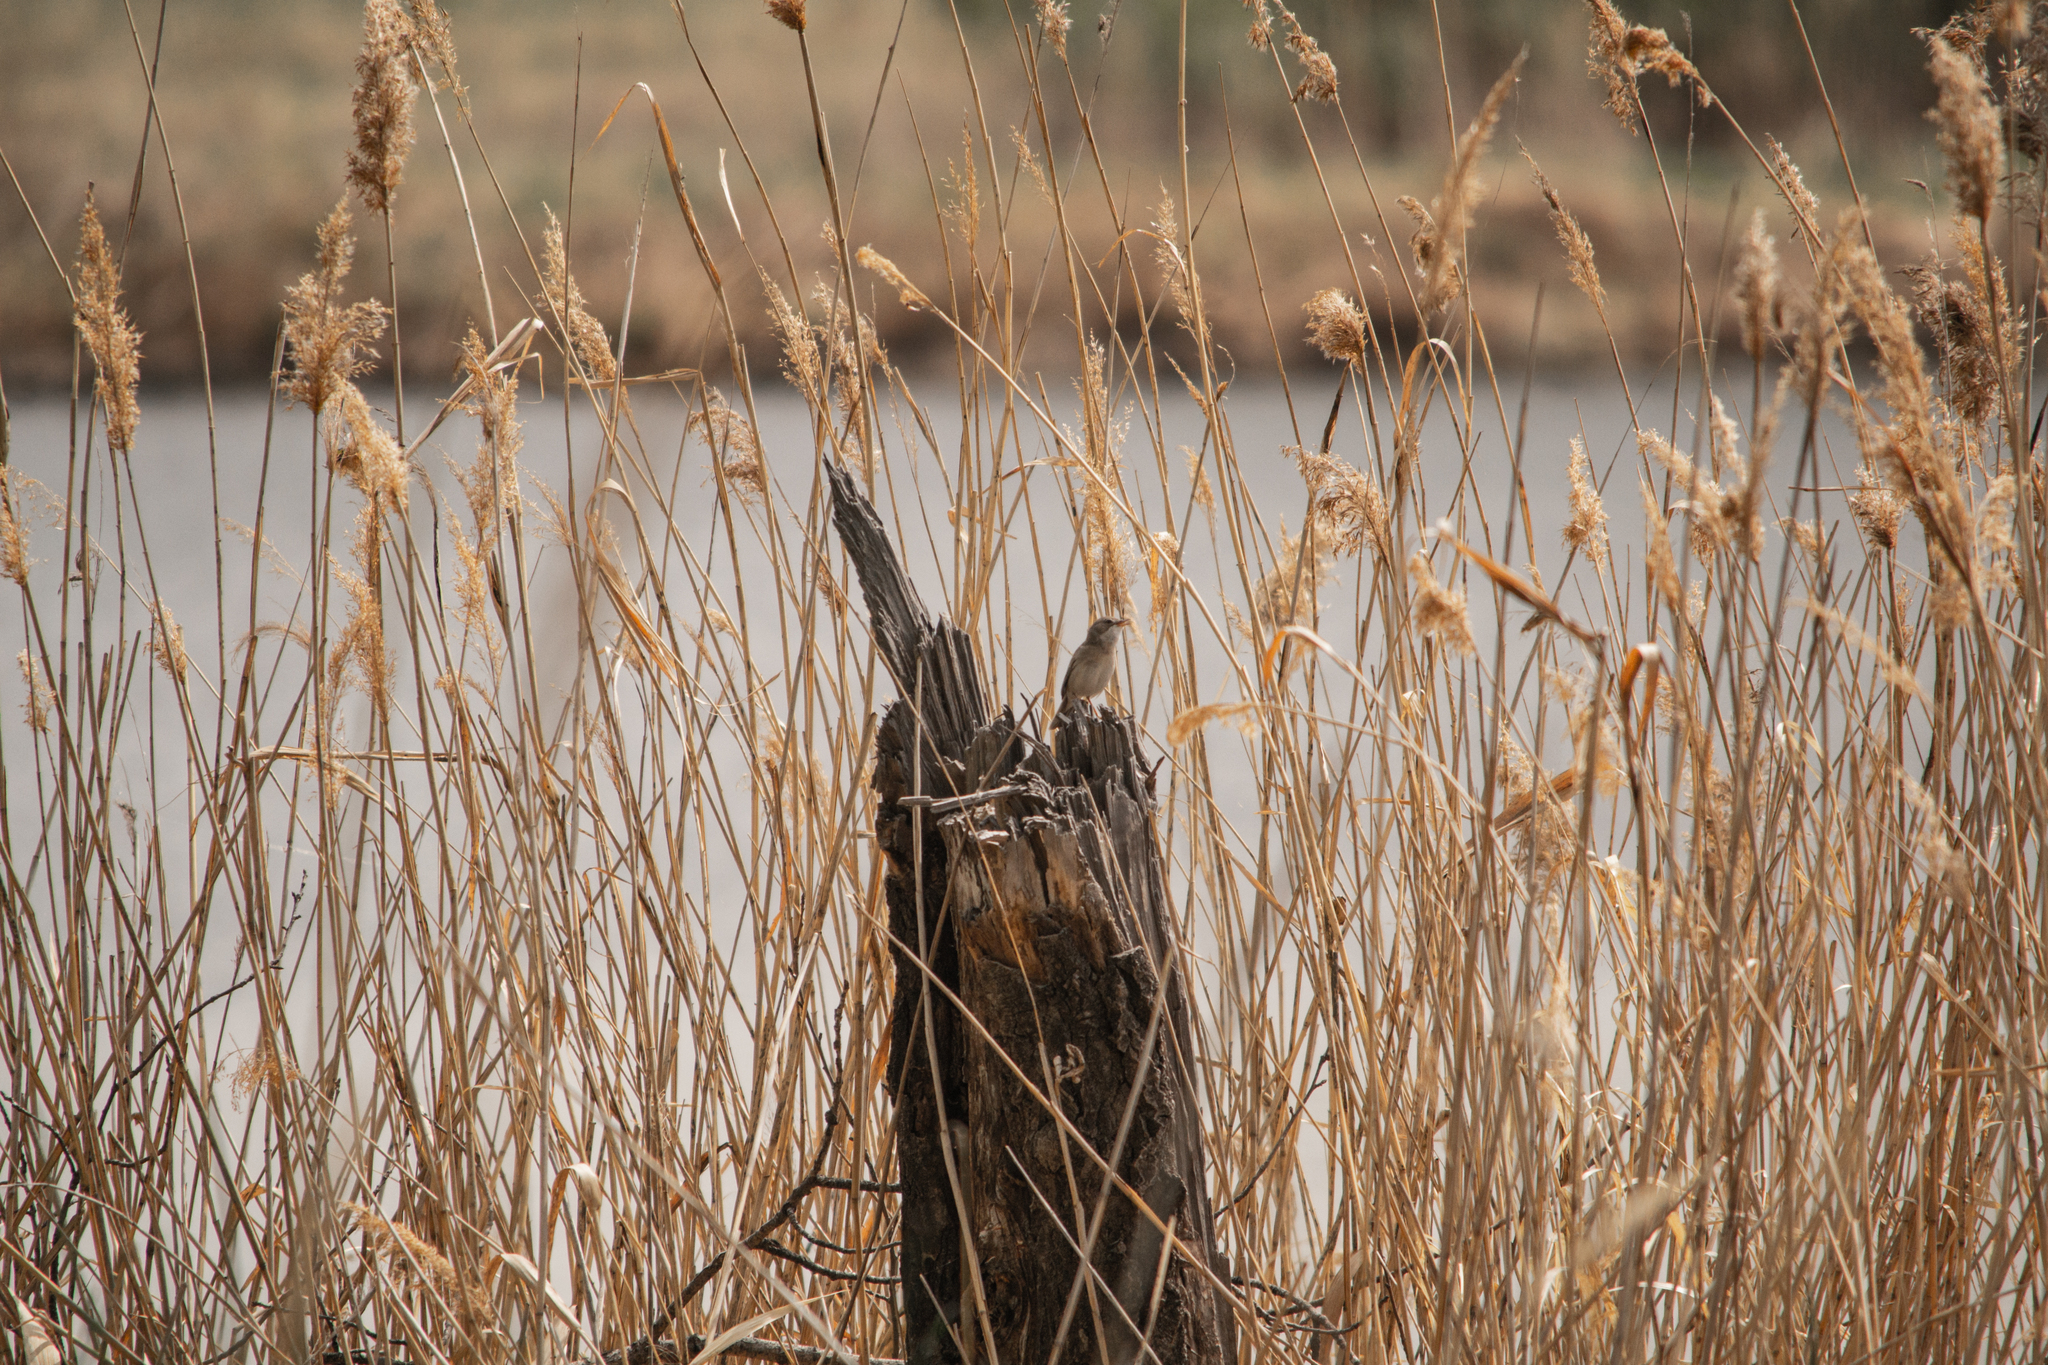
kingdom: Animalia
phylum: Chordata
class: Aves
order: Passeriformes
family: Sylviidae
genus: Sylvia
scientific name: Sylvia communis
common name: Common whitethroat
